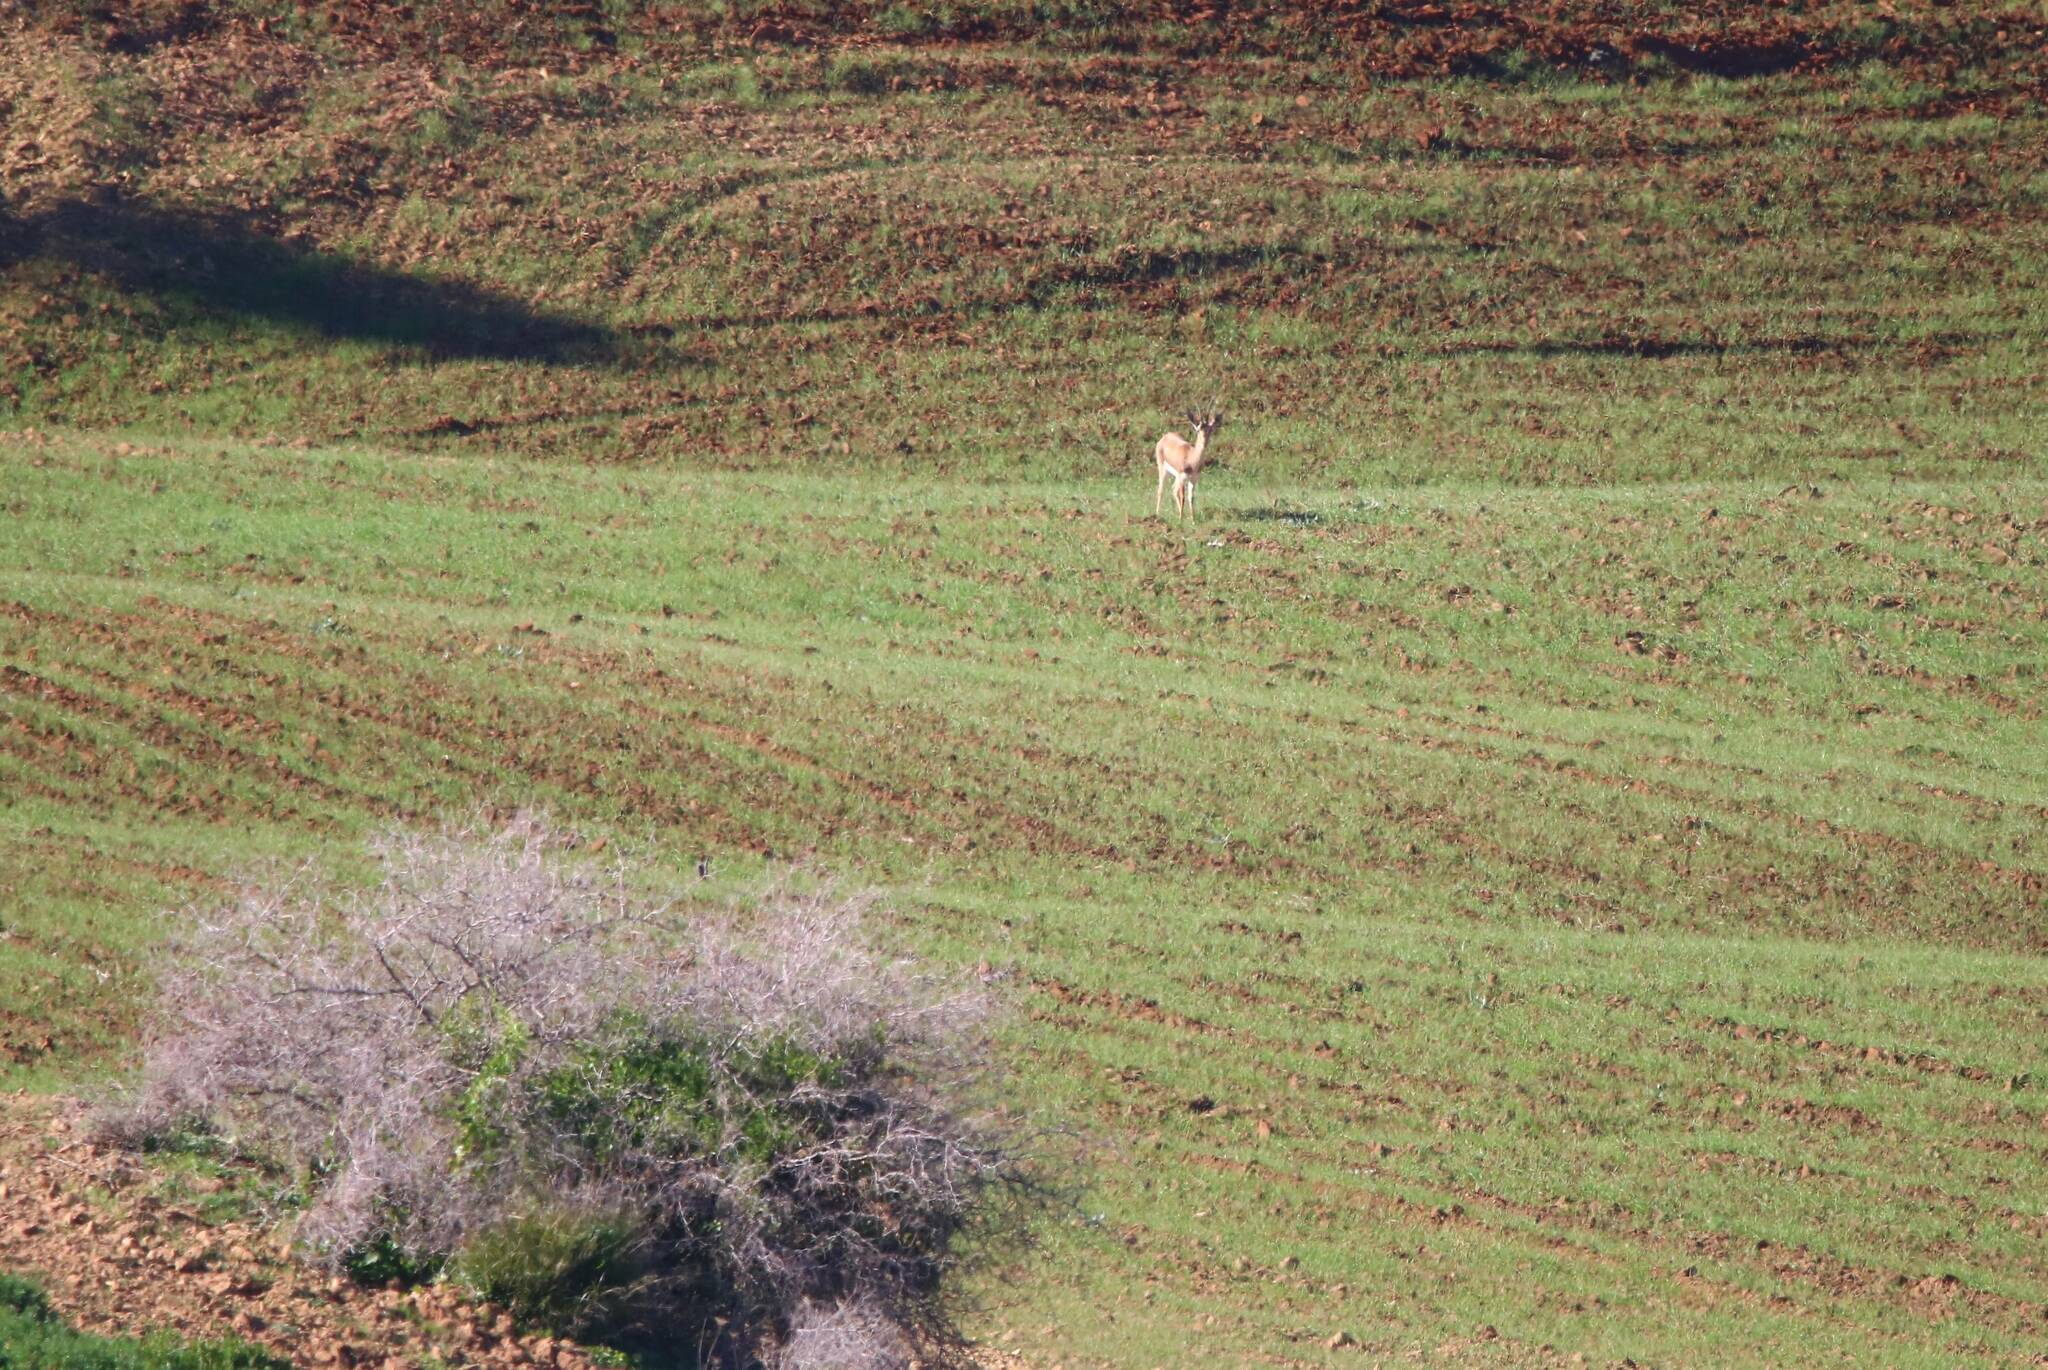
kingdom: Animalia
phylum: Chordata
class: Mammalia
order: Artiodactyla
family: Bovidae
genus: Gazella
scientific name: Gazella cuvieri
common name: Cuvier's gazelle
